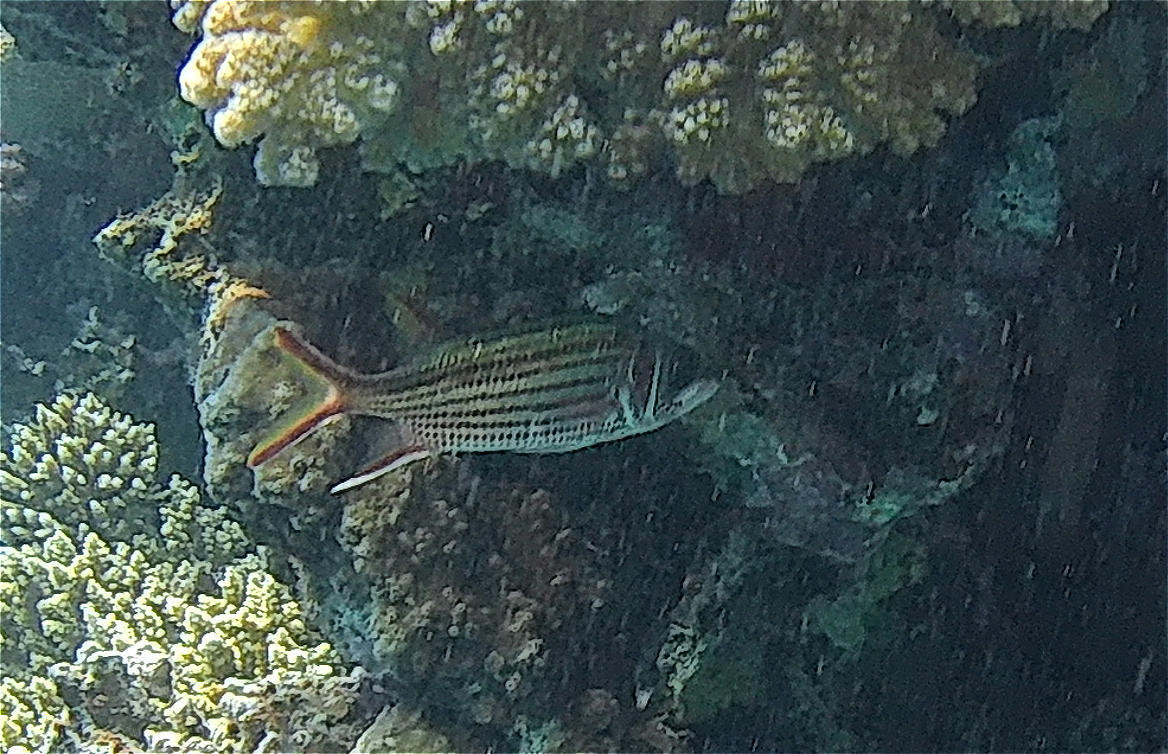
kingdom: Animalia
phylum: Chordata
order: Beryciformes
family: Holocentridae
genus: Neoniphon
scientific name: Neoniphon sammara
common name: Sammara squirrelfish
